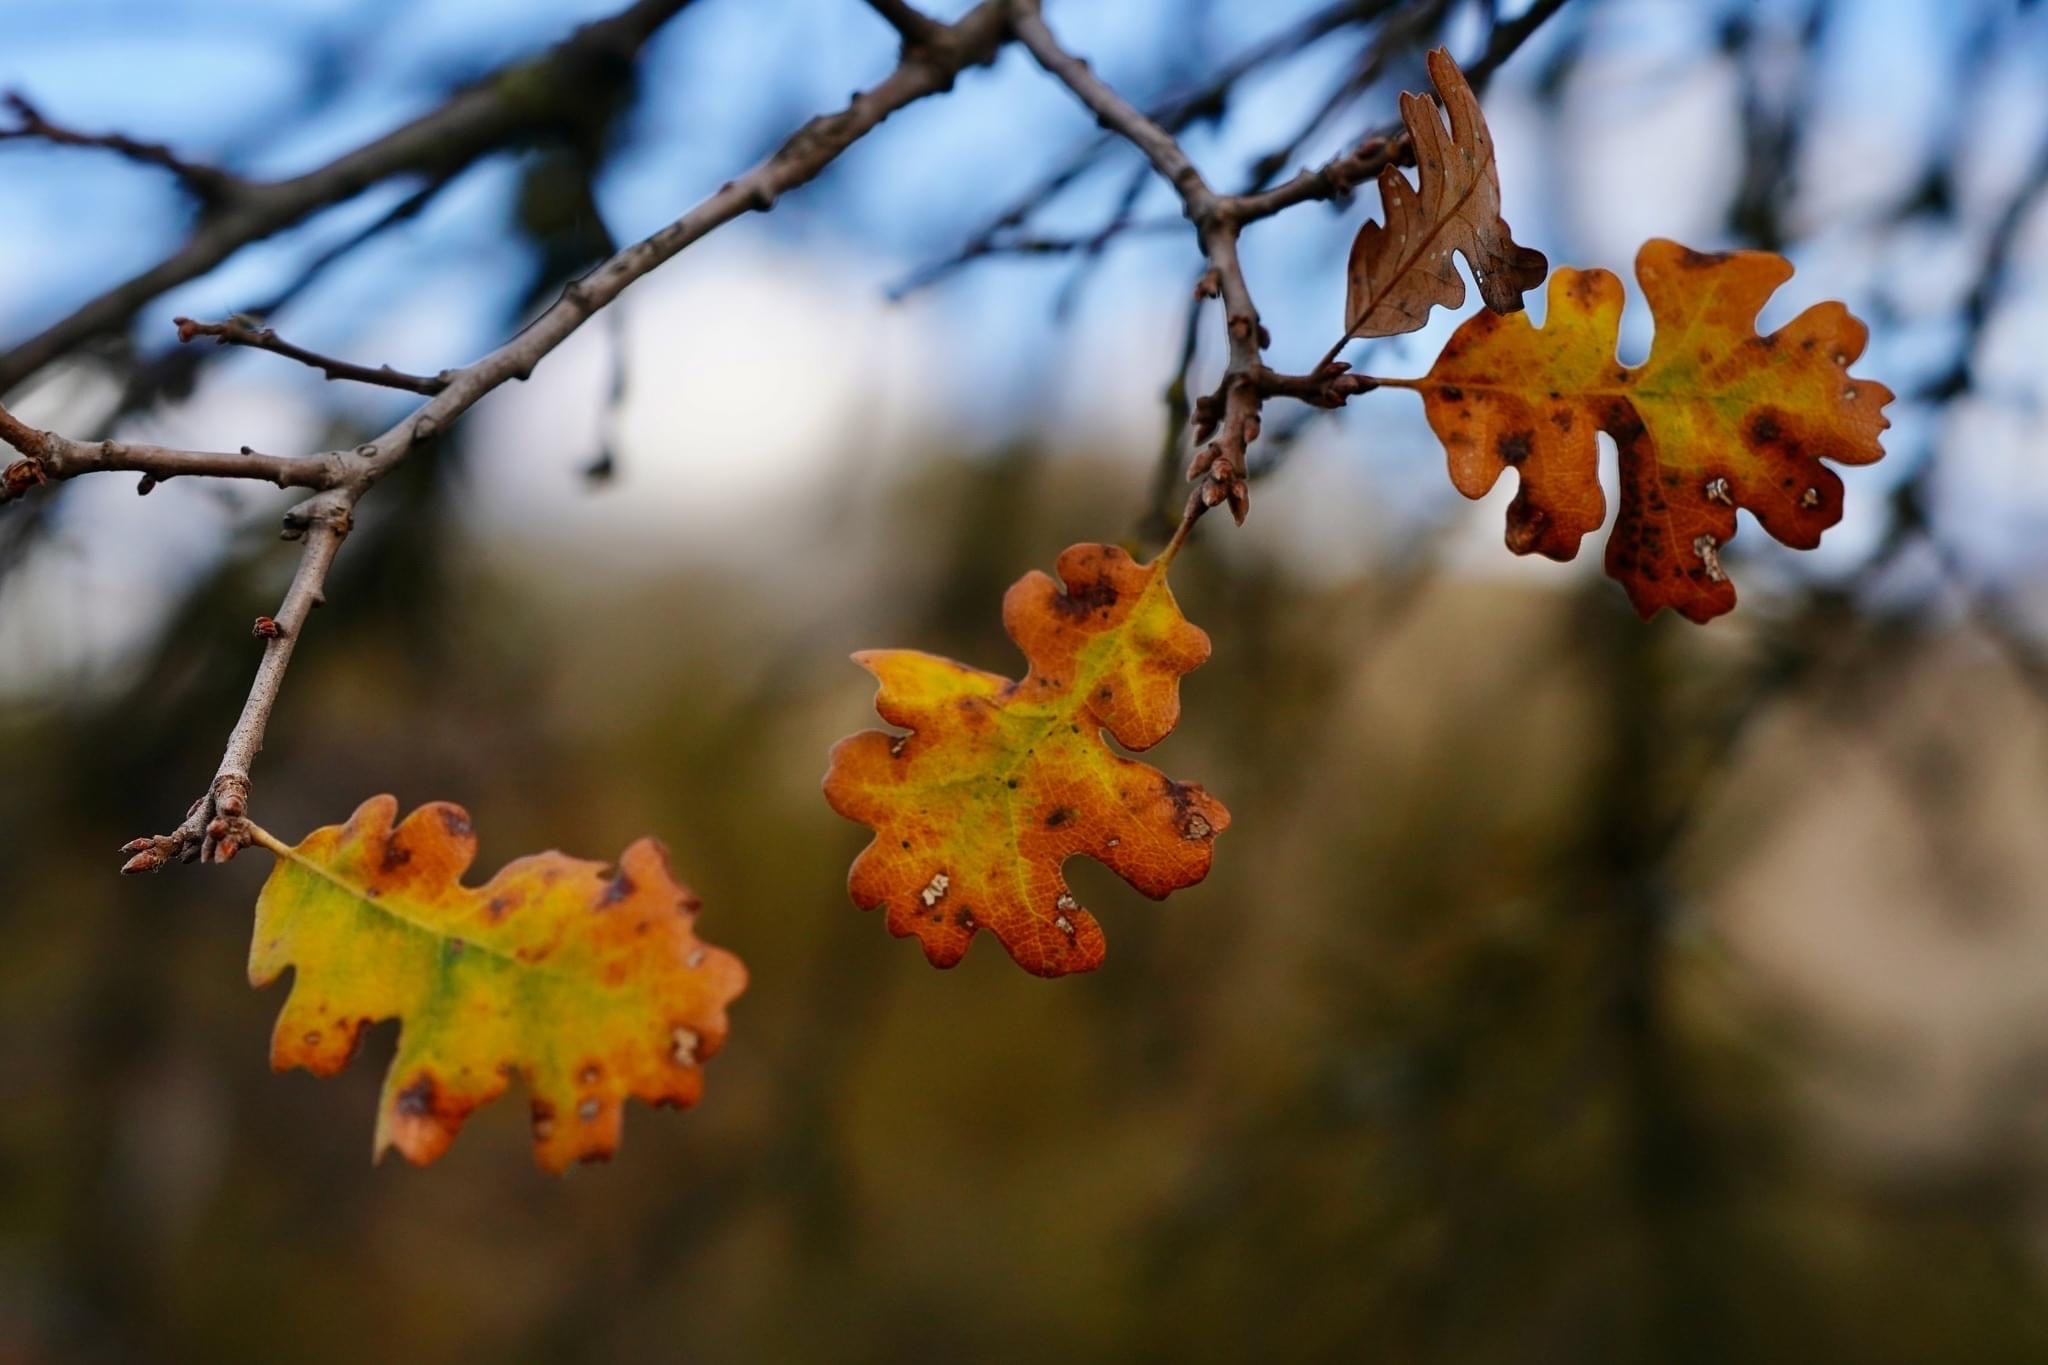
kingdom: Plantae
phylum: Tracheophyta
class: Magnoliopsida
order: Fagales
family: Fagaceae
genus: Quercus
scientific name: Quercus lobata
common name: Valley oak
